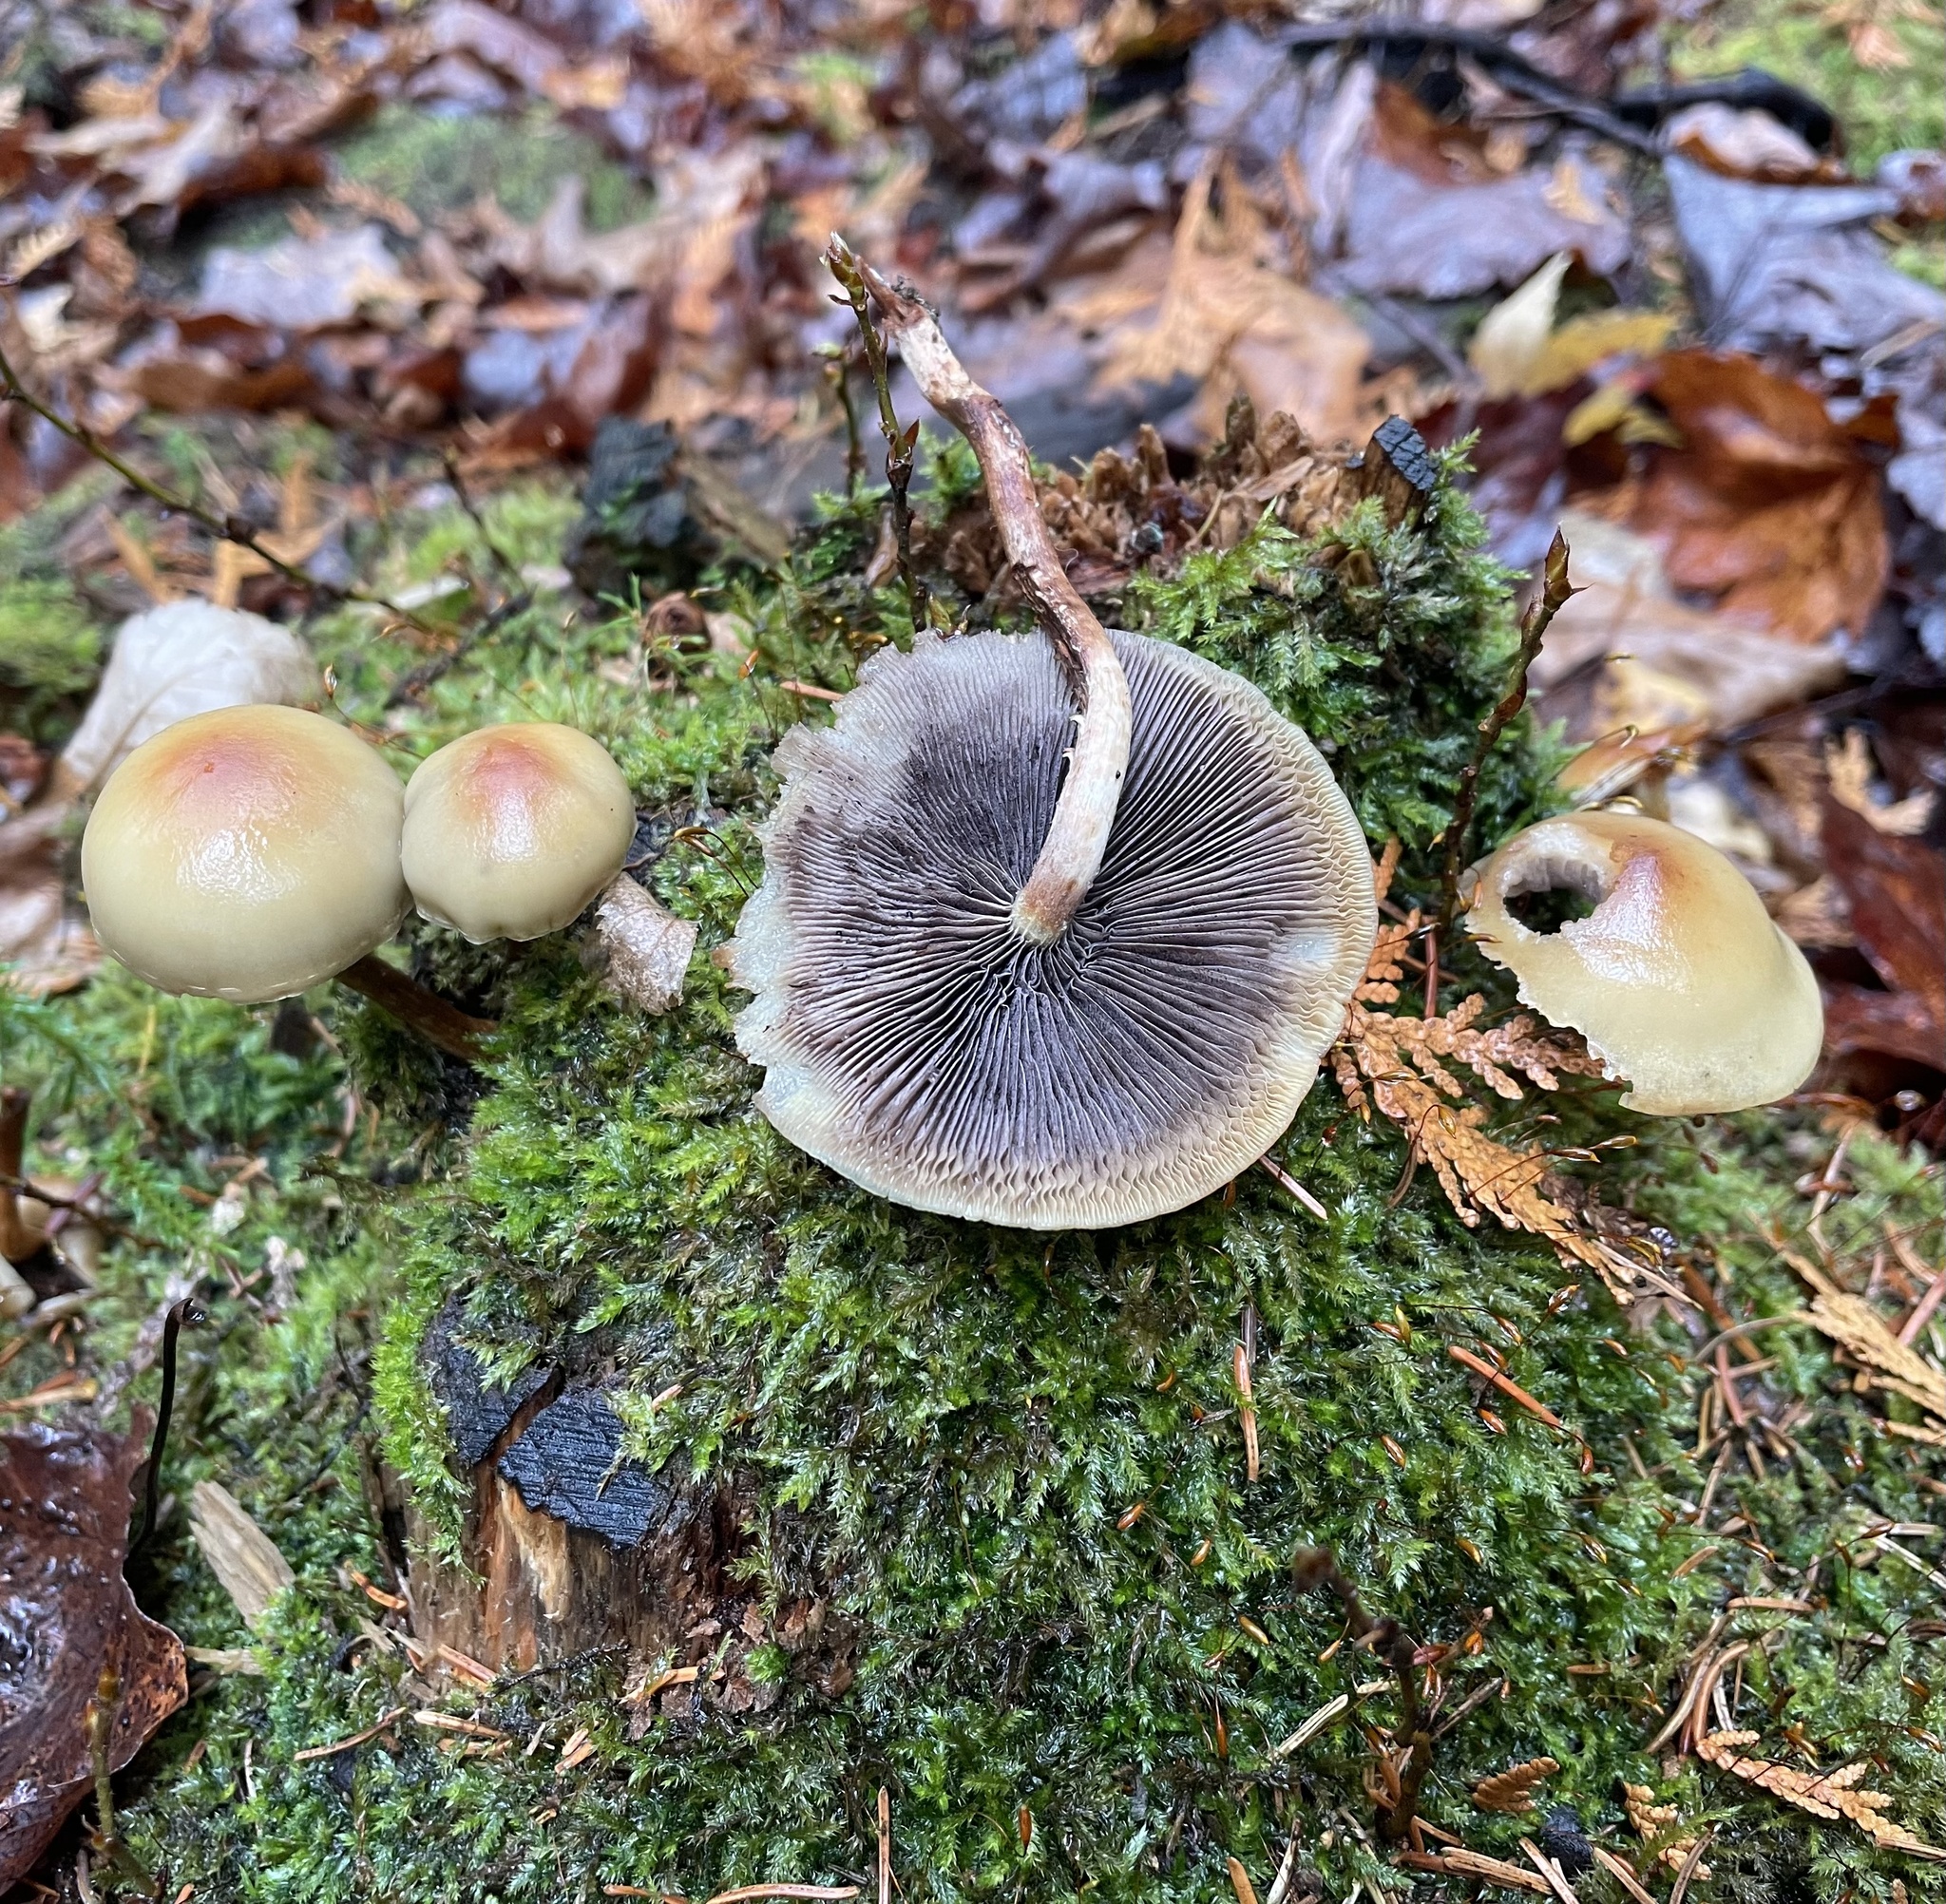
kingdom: Fungi
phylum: Basidiomycota
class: Agaricomycetes
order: Agaricales
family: Strophariaceae
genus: Hypholoma
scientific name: Hypholoma capnoides
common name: Conifer tuft
